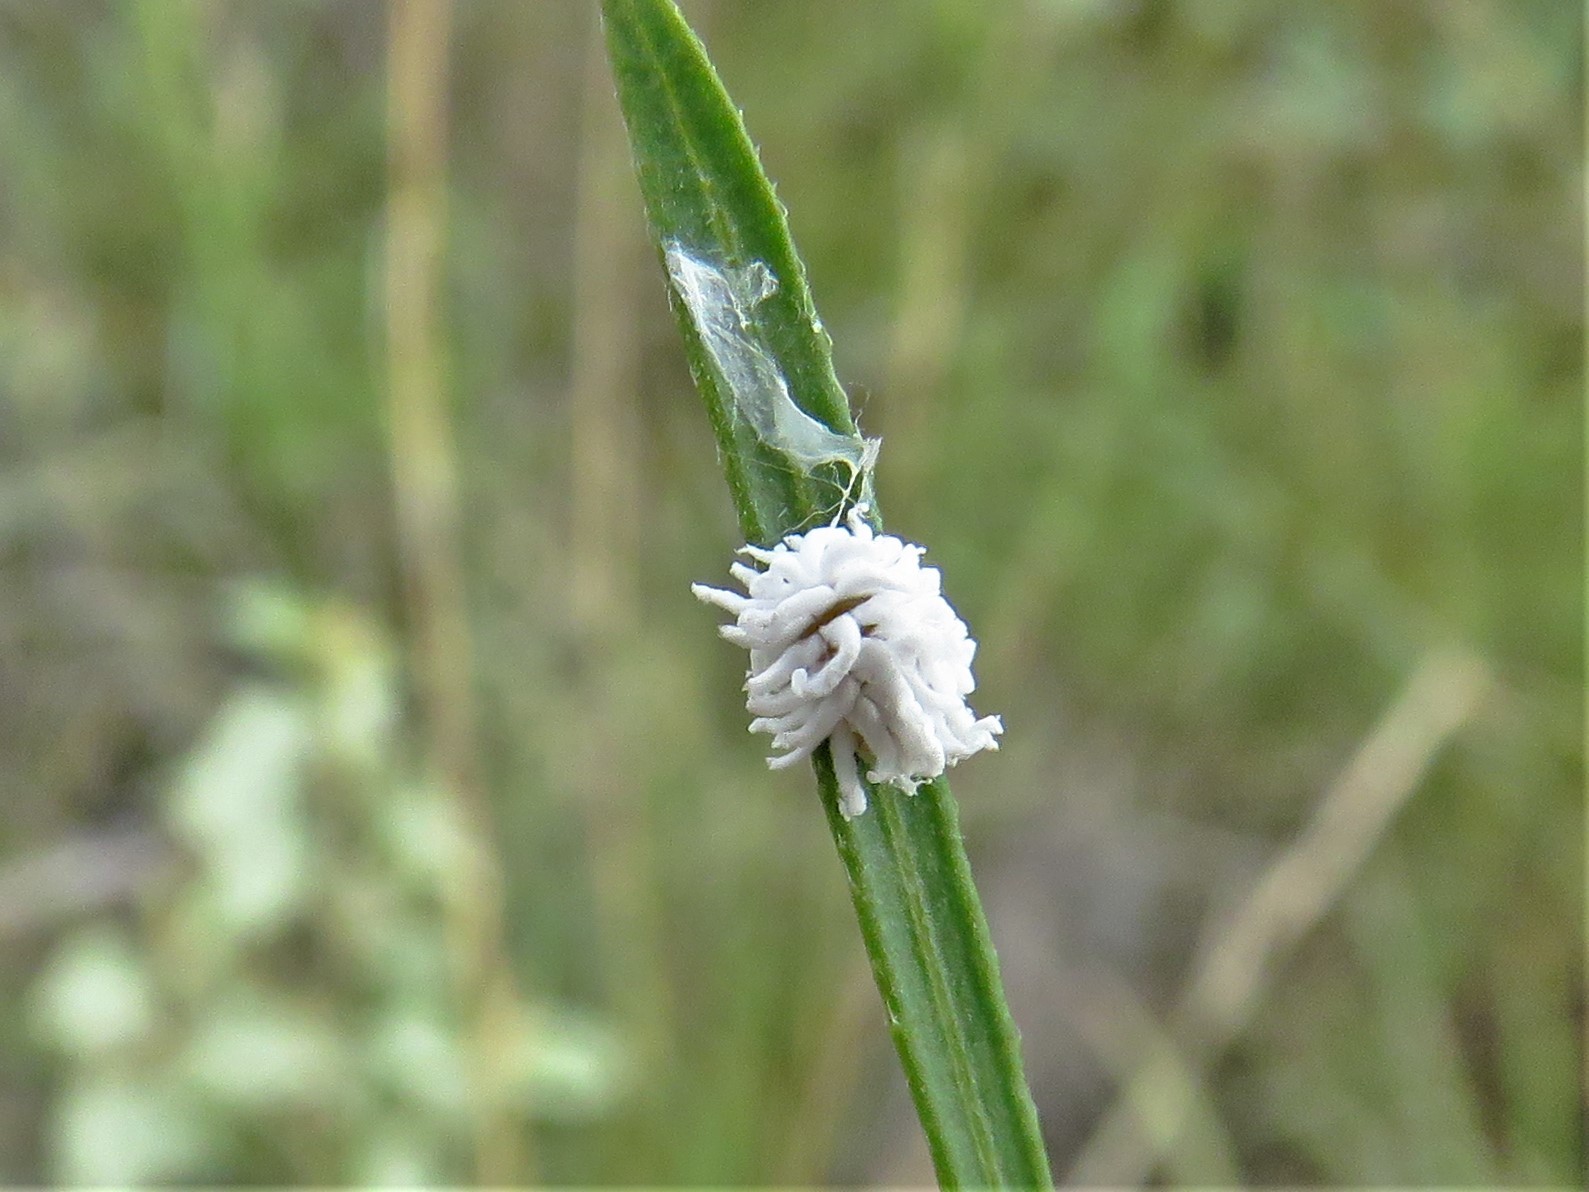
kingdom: Animalia
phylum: Arthropoda
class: Insecta
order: Coleoptera
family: Coccinellidae
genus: Cryptolaemus
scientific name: Cryptolaemus montrouzieri
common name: Mealybug destroyer
